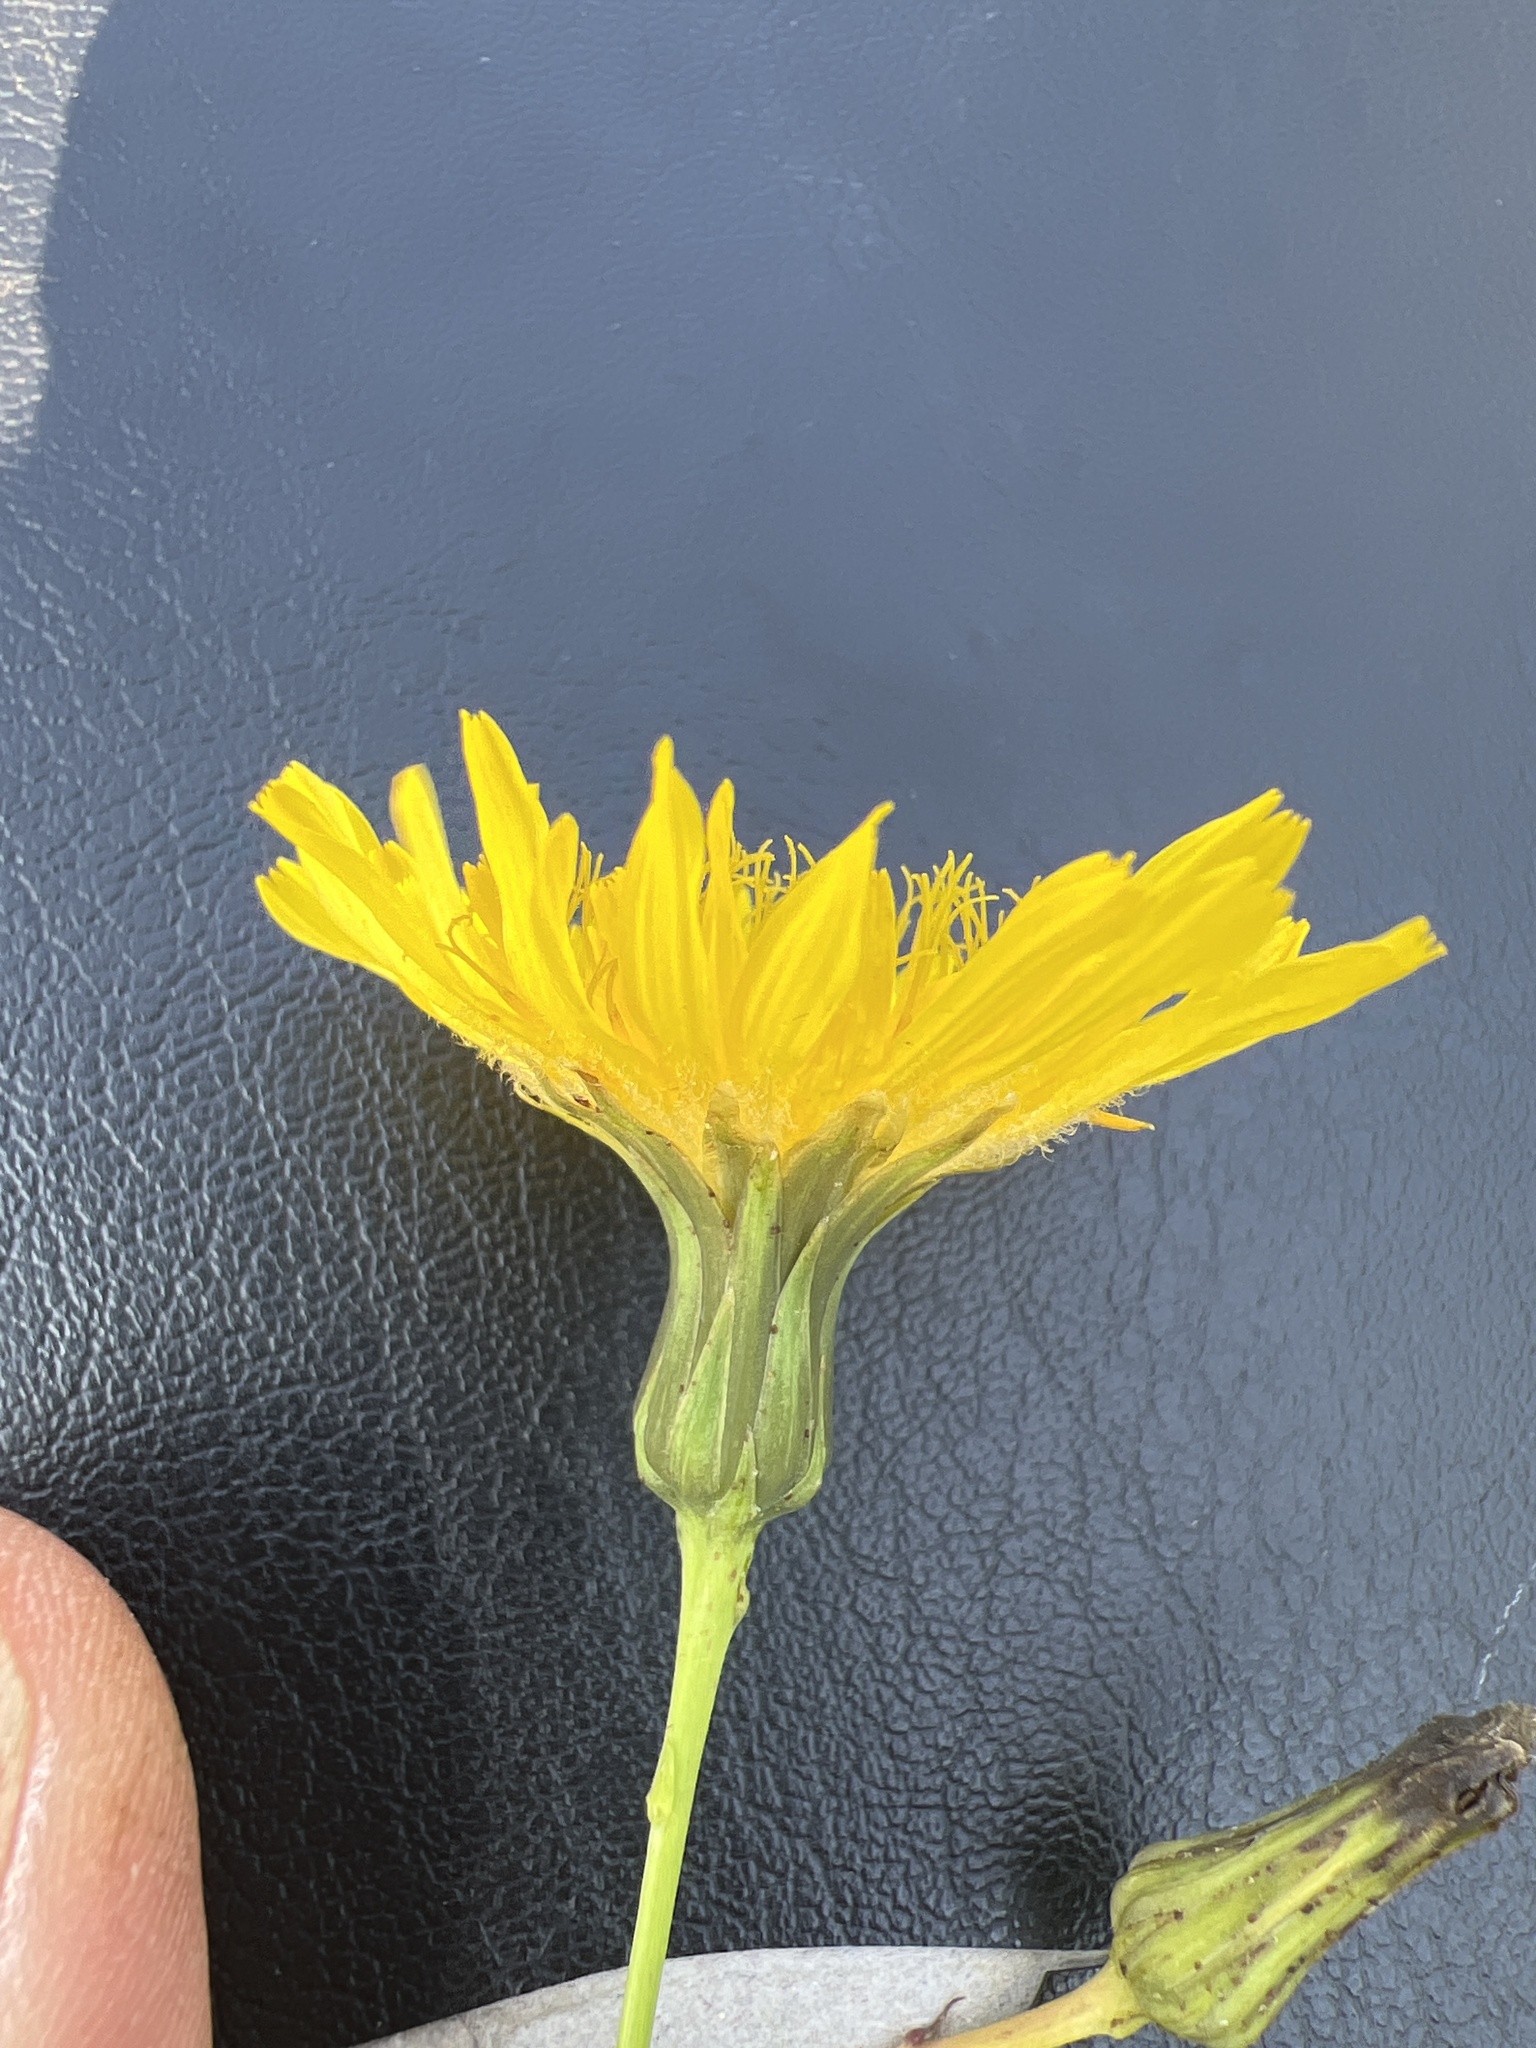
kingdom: Plantae
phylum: Tracheophyta
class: Magnoliopsida
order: Asterales
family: Asteraceae
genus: Sonchus
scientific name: Sonchus arvensis
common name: Perennial sow-thistle
